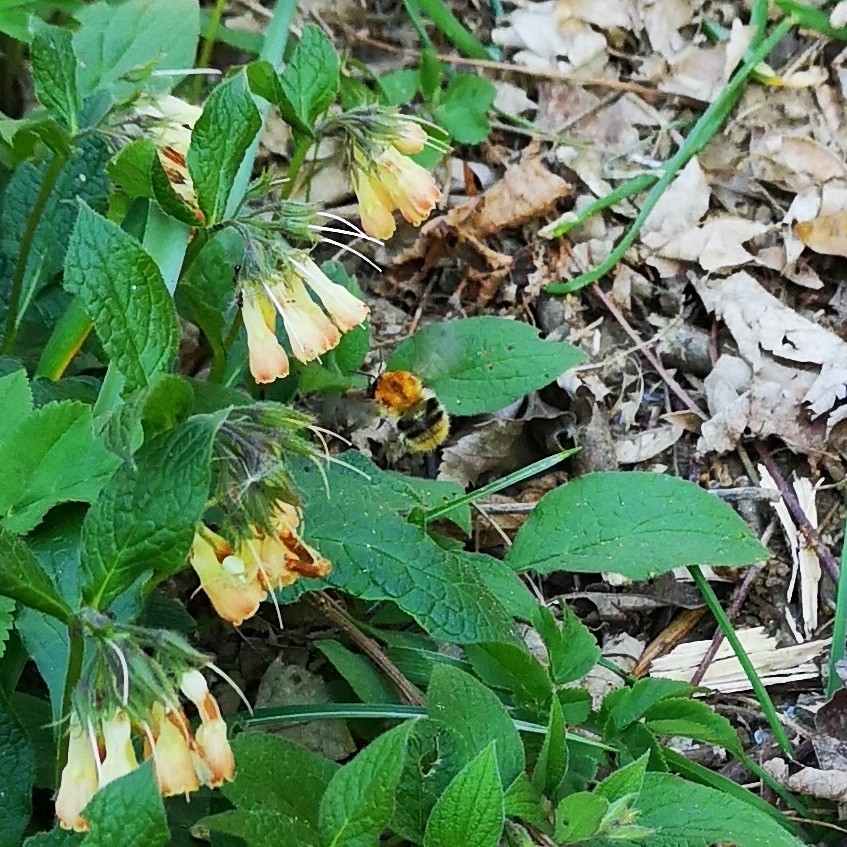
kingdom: Animalia
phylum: Arthropoda
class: Insecta
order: Hymenoptera
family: Apidae
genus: Bombus
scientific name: Bombus pascuorum
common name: Common carder bee
